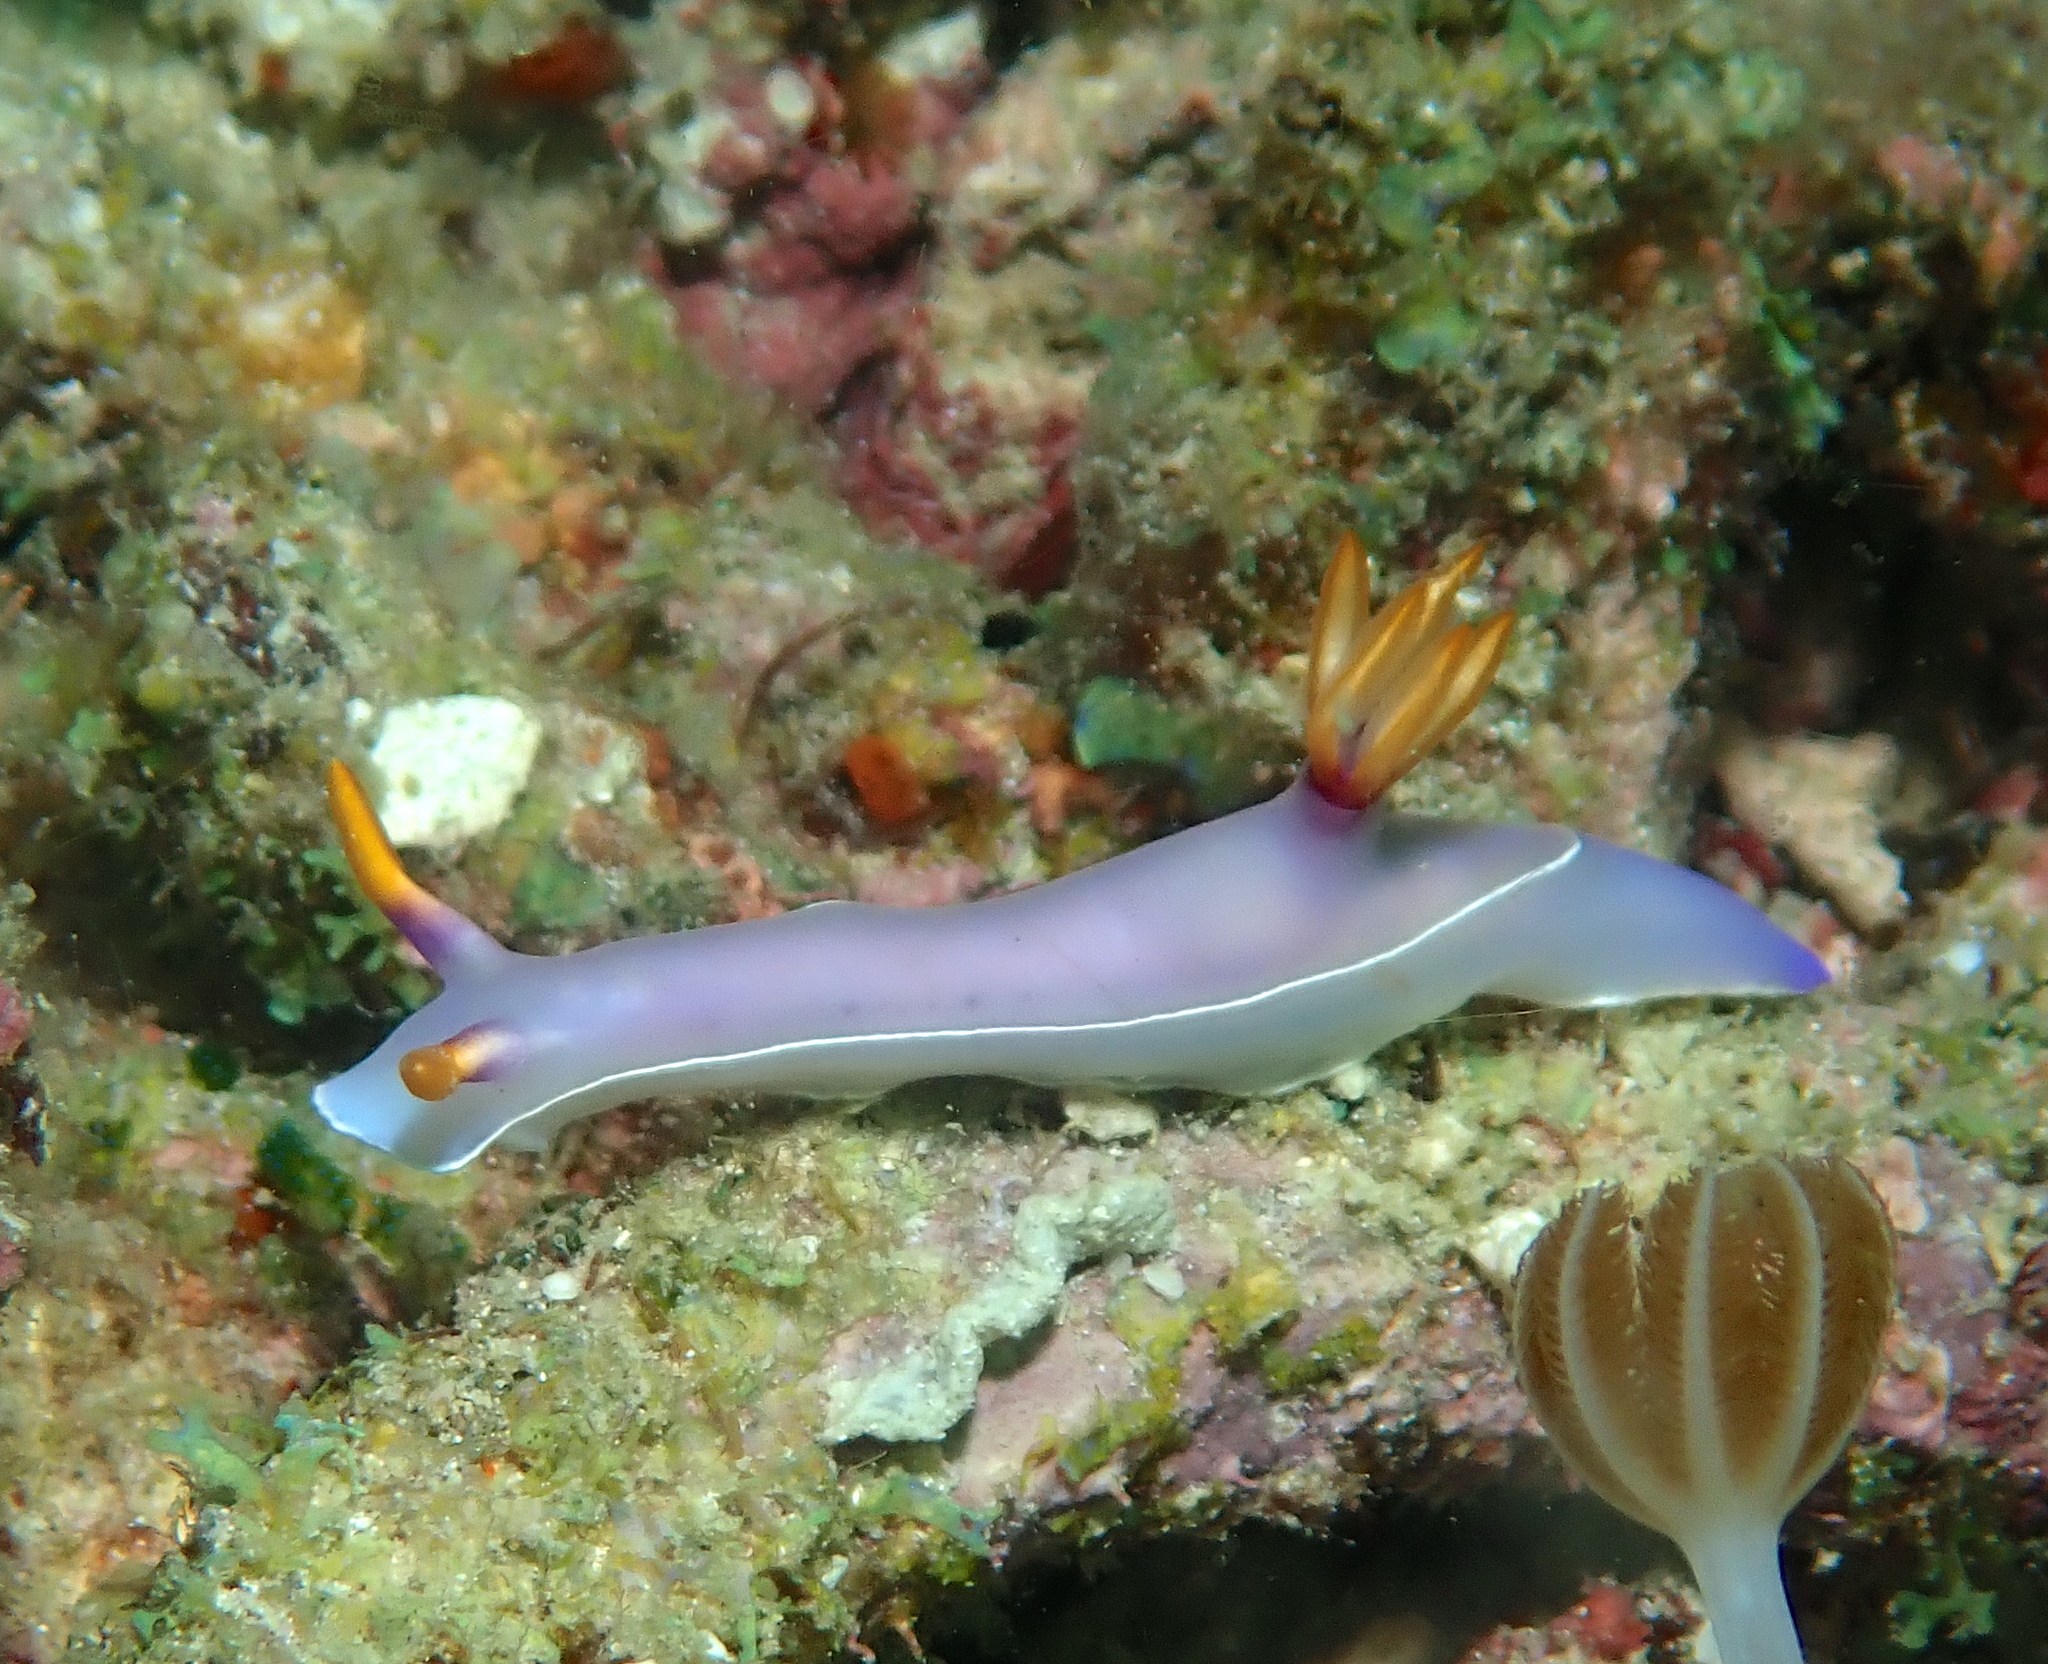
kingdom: Animalia
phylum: Mollusca
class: Gastropoda
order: Nudibranchia
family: Chromodorididae
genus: Hypselodoris
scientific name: Hypselodoris bullockii
